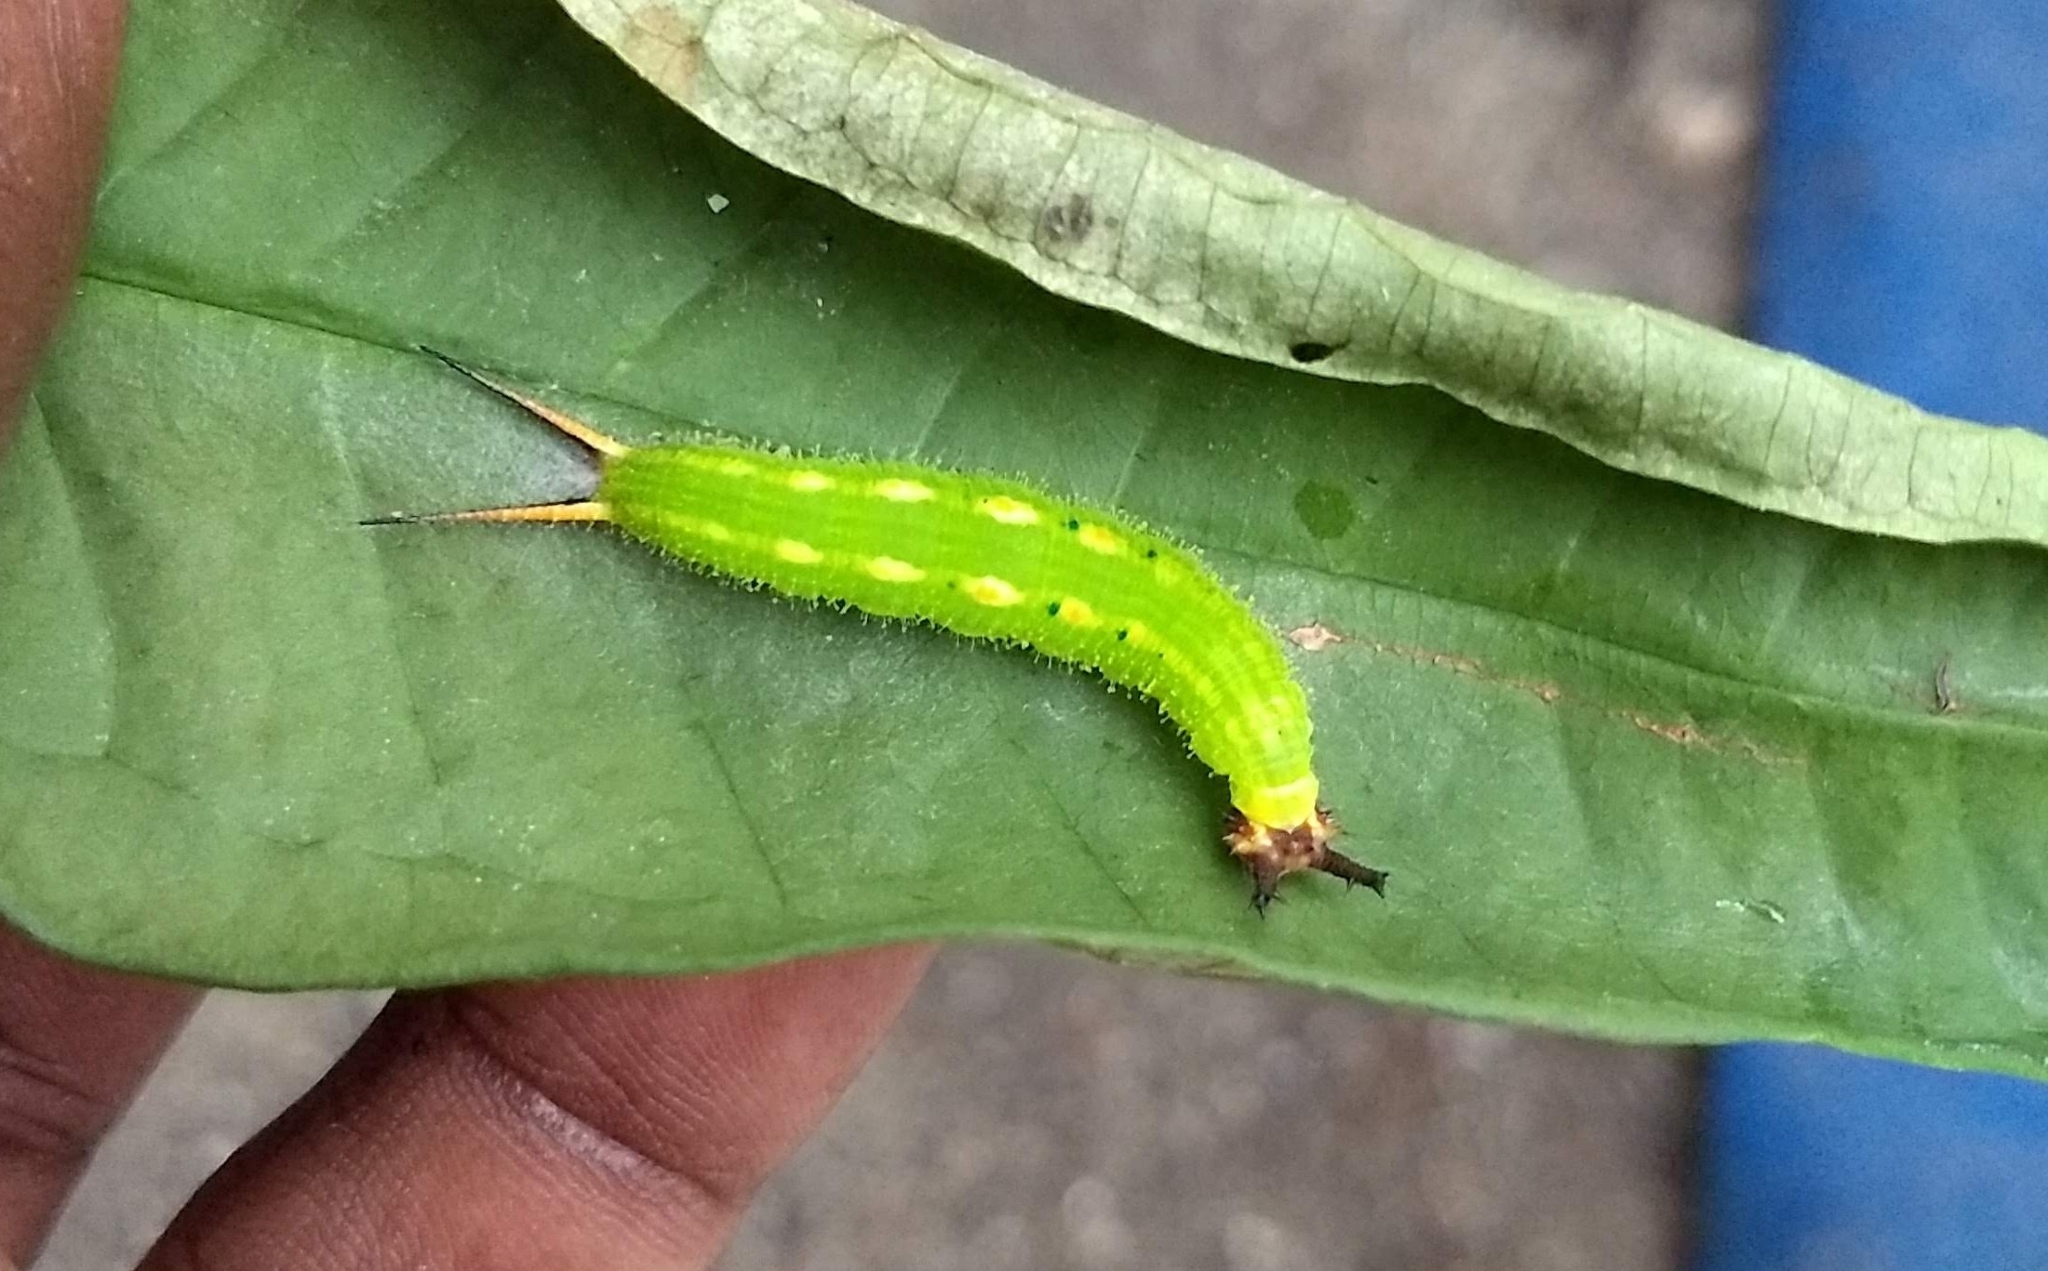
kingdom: Animalia
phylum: Arthropoda
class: Insecta
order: Lepidoptera
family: Nymphalidae
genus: Elymnias
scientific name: Elymnias caudata
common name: Tailed palmfly
